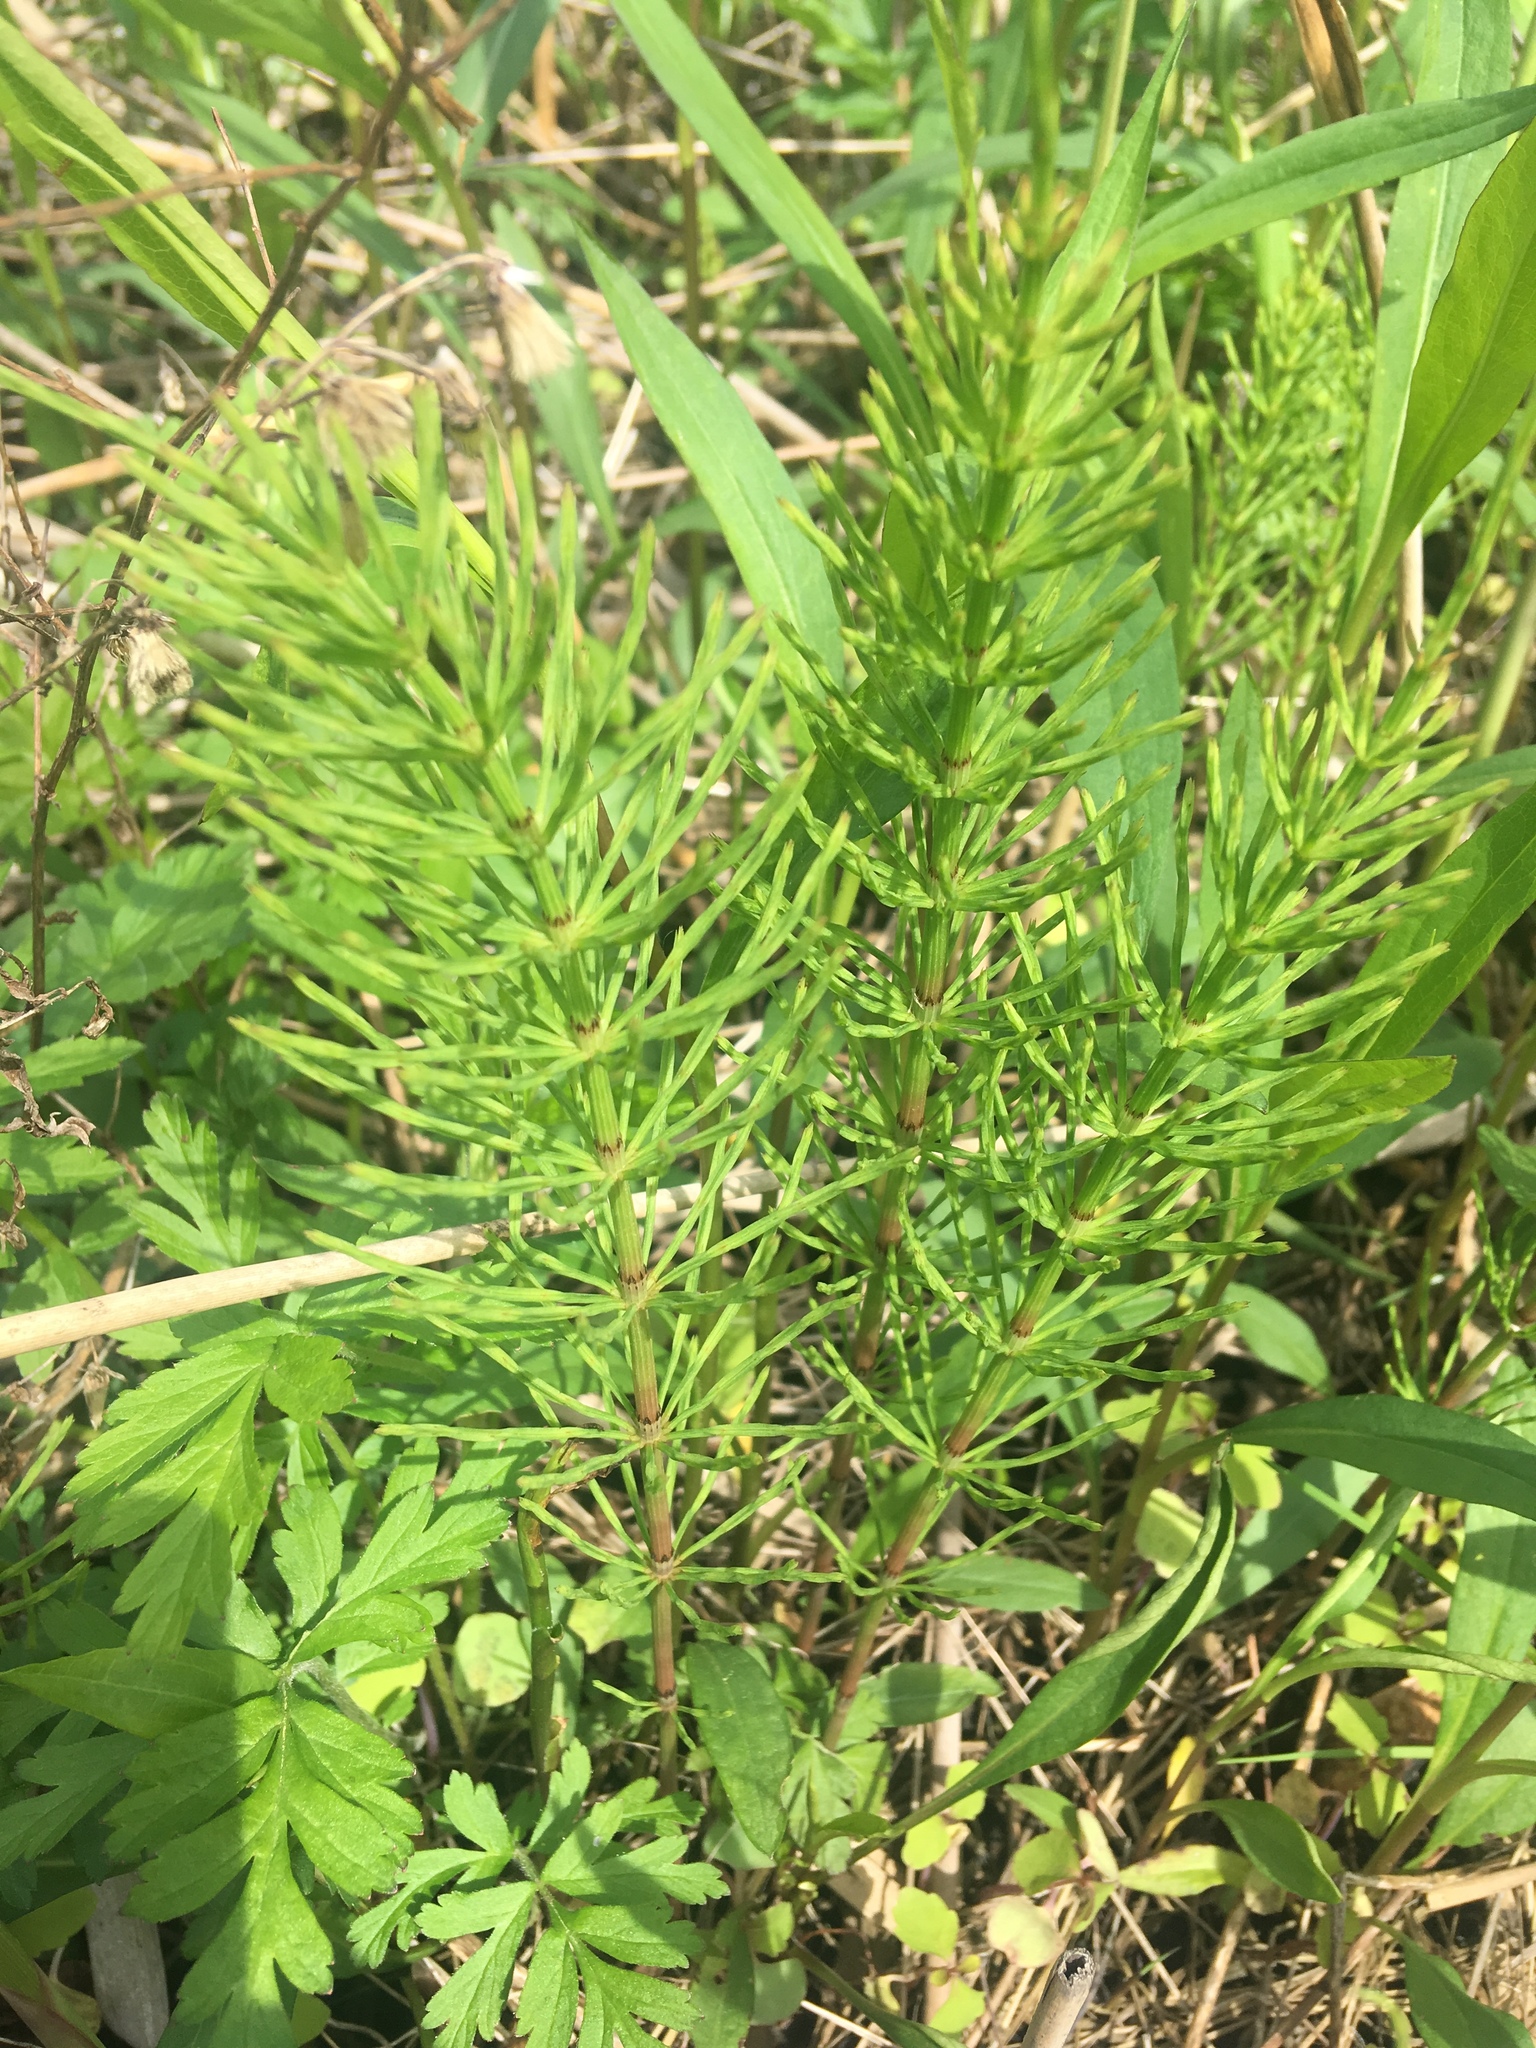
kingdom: Plantae
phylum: Tracheophyta
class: Polypodiopsida
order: Equisetales
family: Equisetaceae
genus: Equisetum
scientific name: Equisetum arvense
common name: Field horsetail
